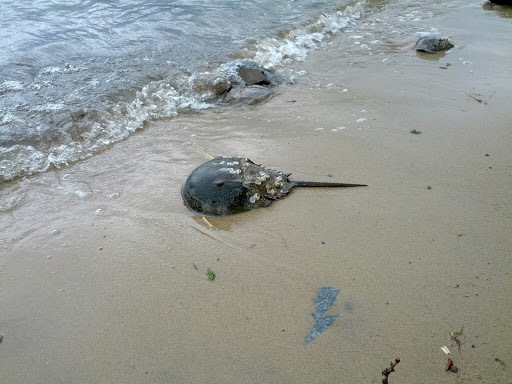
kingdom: Animalia
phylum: Arthropoda
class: Merostomata
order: Xiphosurida
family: Limulidae
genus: Limulus
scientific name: Limulus polyphemus
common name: Horseshoe crab
